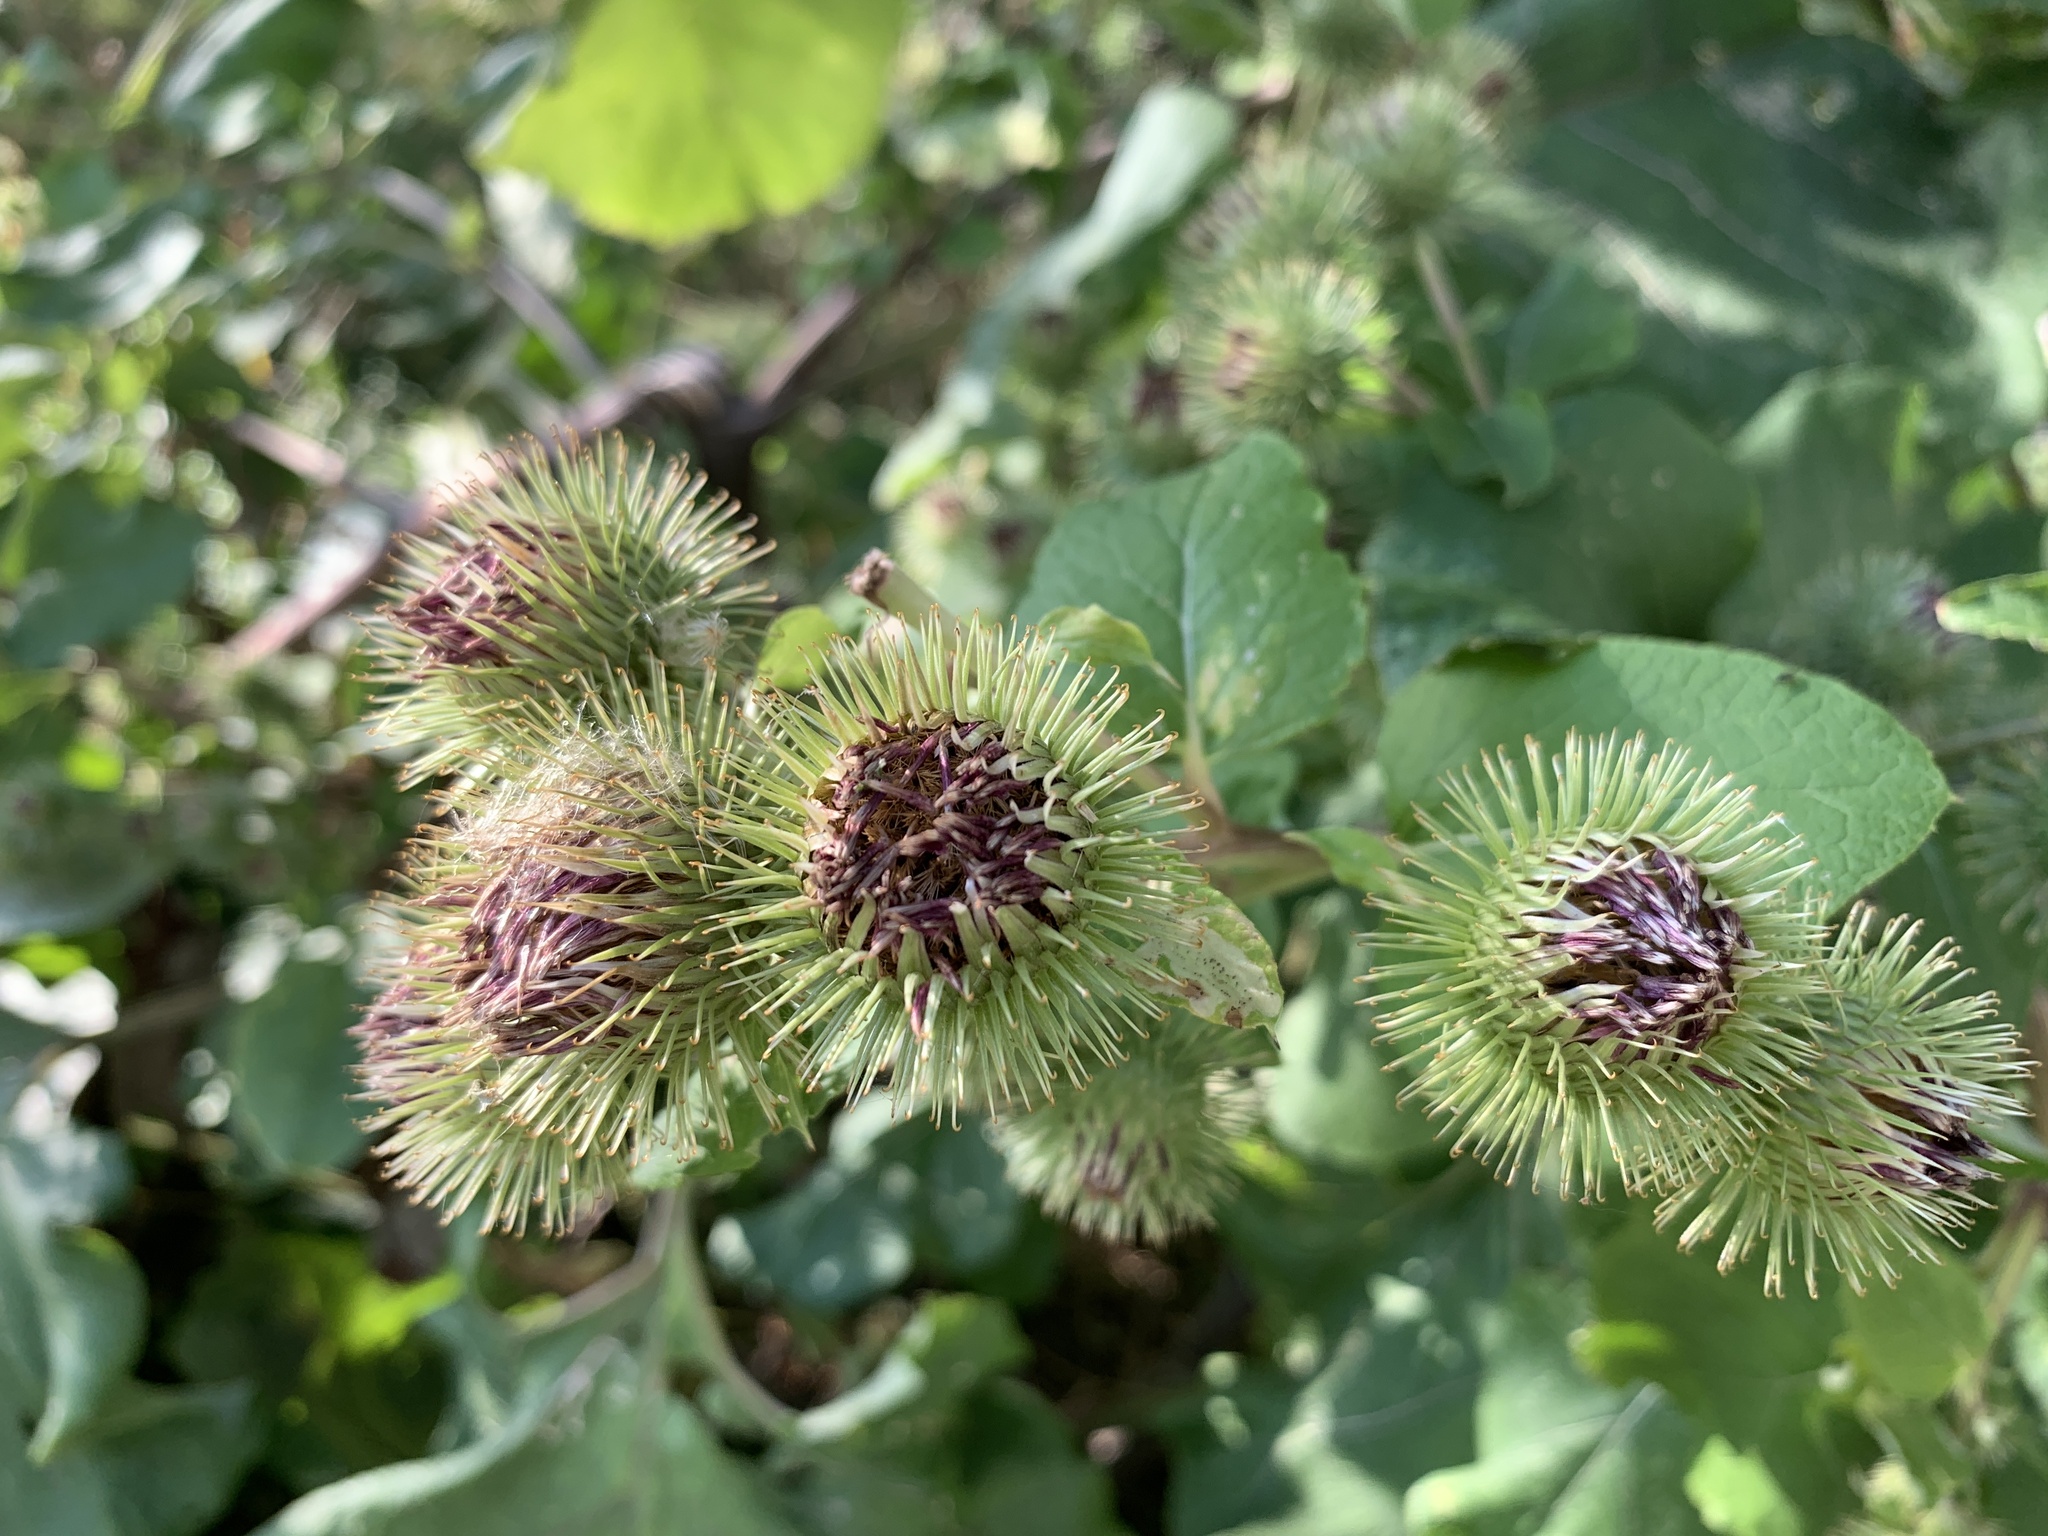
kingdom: Plantae
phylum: Tracheophyta
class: Magnoliopsida
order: Asterales
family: Asteraceae
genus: Arctium
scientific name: Arctium lappa
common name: Greater burdock
